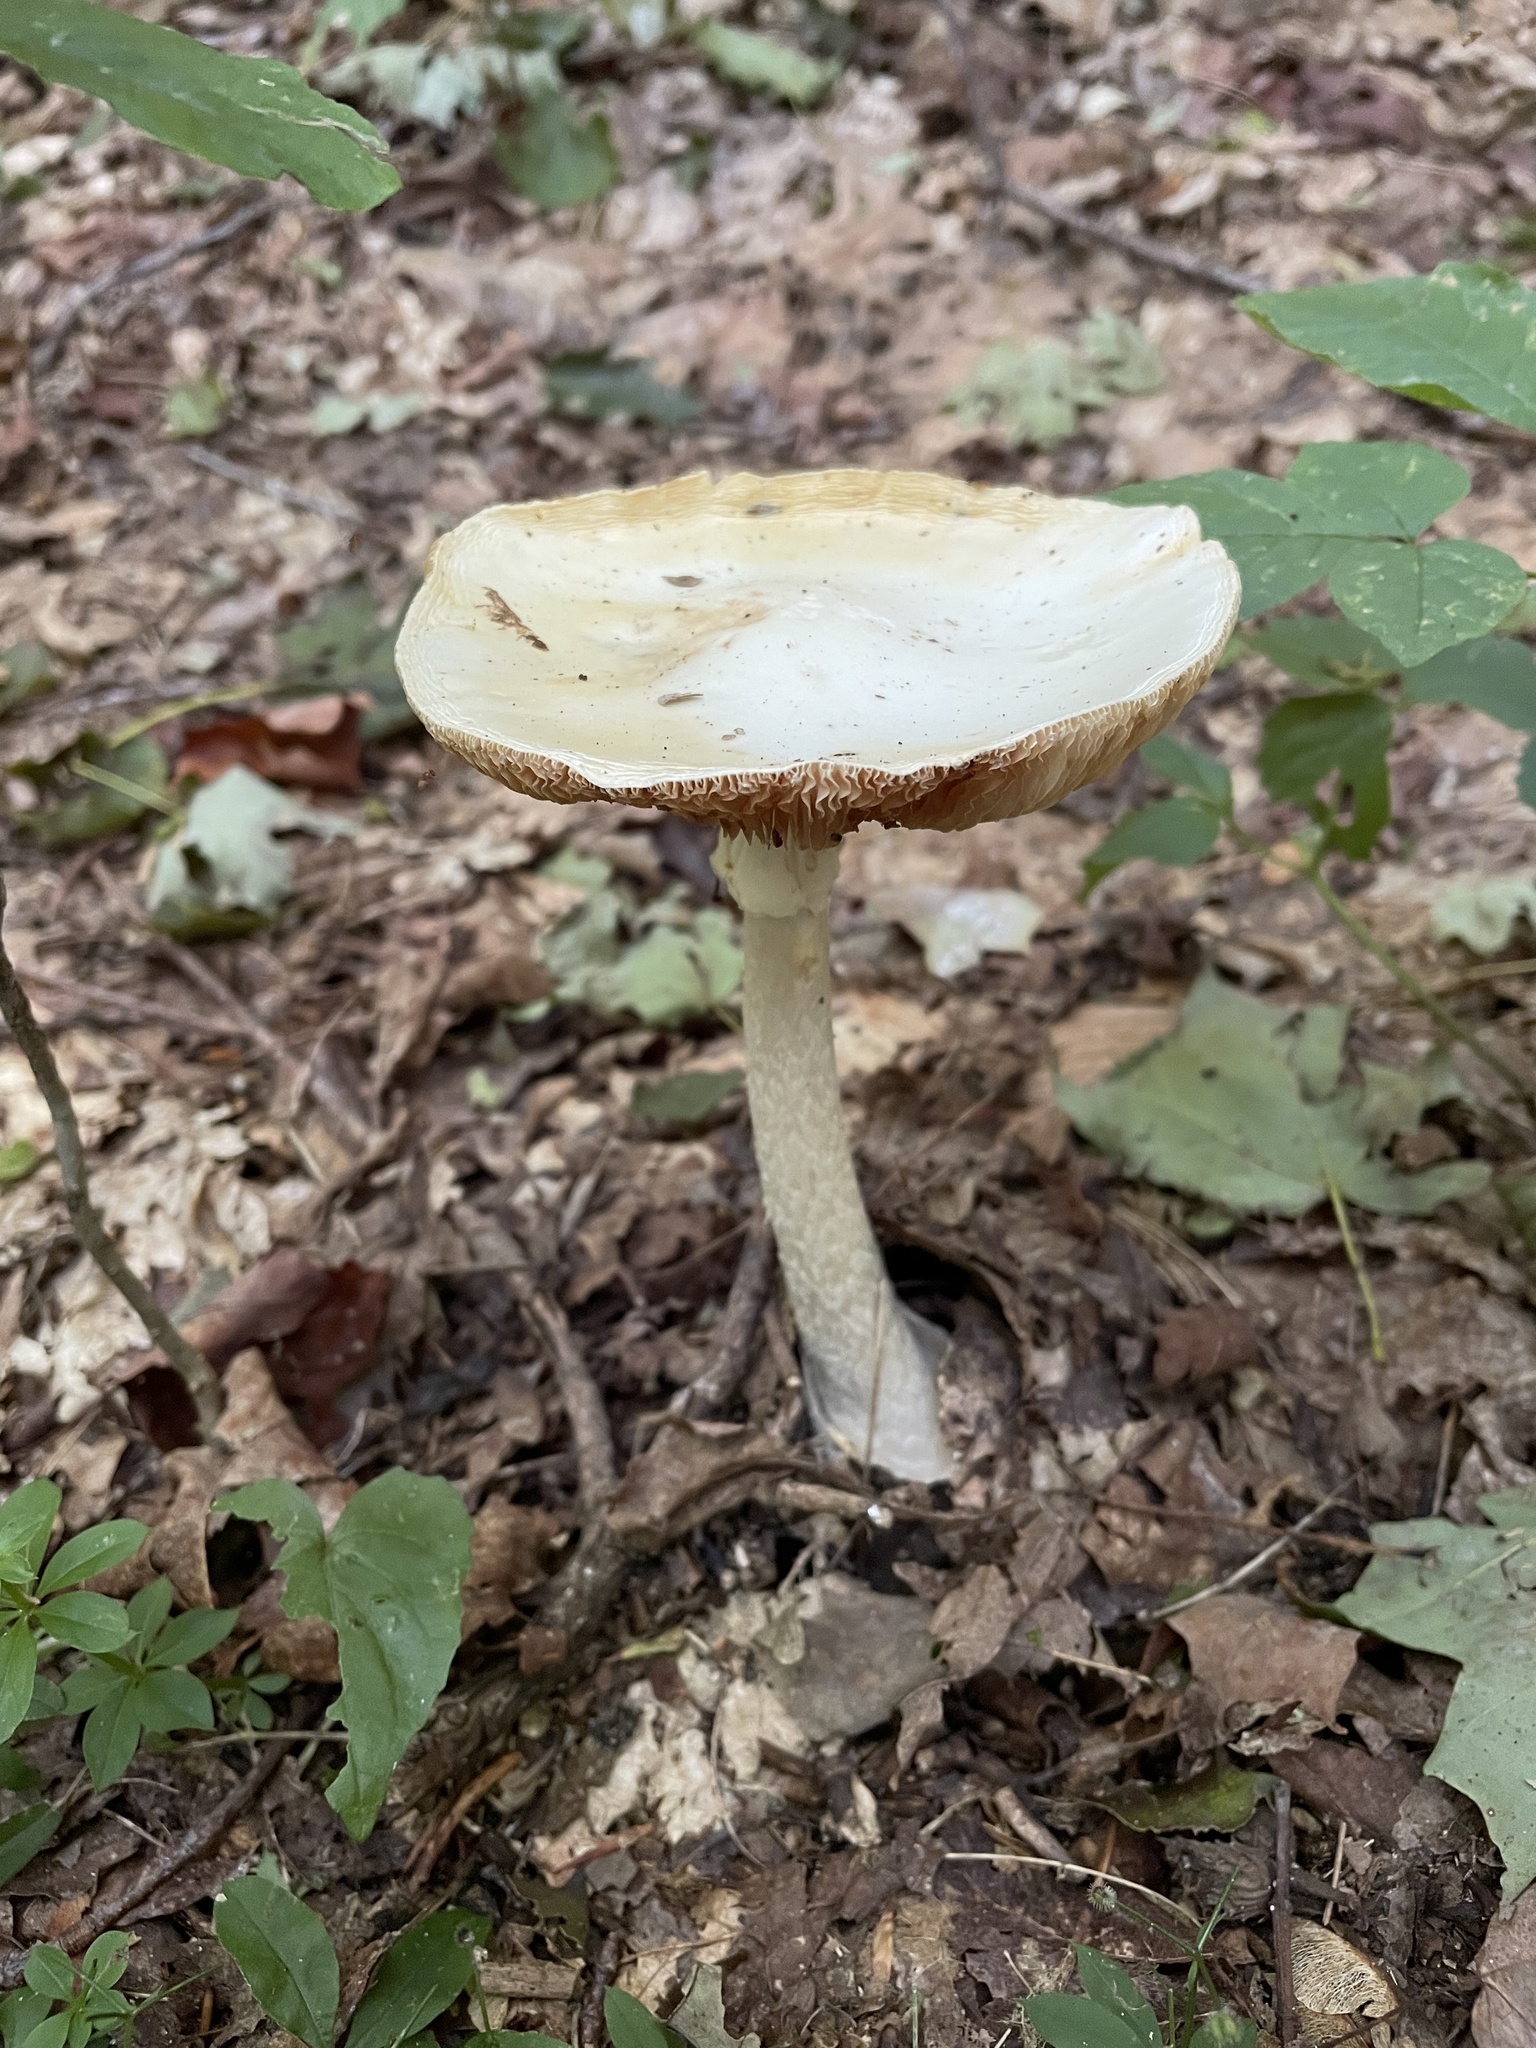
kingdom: Fungi
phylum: Basidiomycota
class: Agaricomycetes
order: Agaricales
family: Amanitaceae
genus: Amanita
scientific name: Amanita bisporigera
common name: Eastern north american destroying angel
